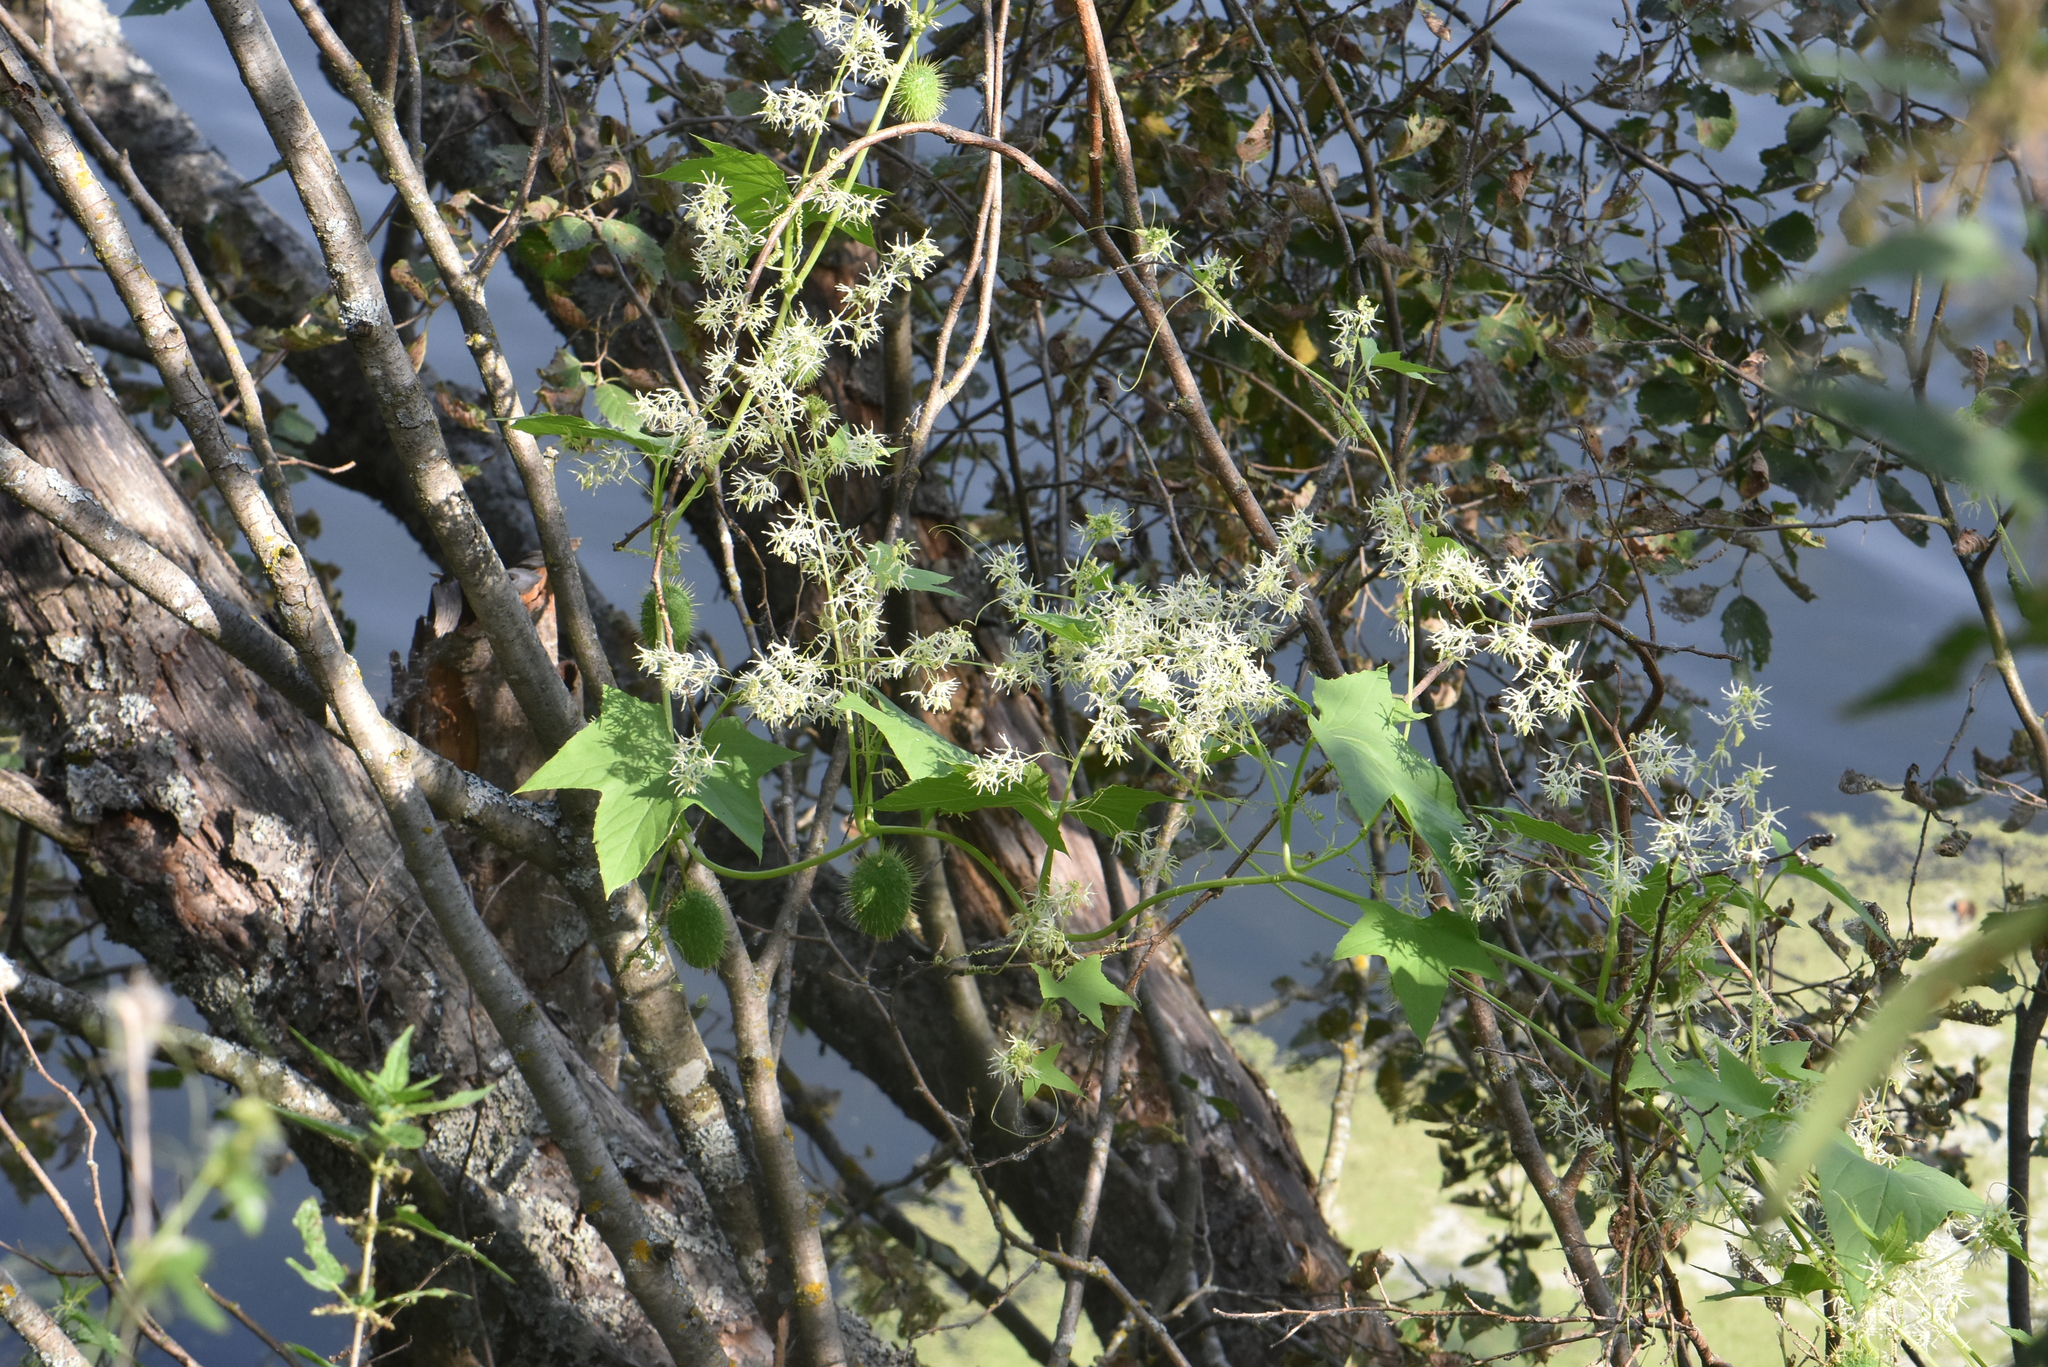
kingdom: Plantae
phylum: Tracheophyta
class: Magnoliopsida
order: Cucurbitales
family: Cucurbitaceae
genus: Echinocystis
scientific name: Echinocystis lobata
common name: Wild cucumber
